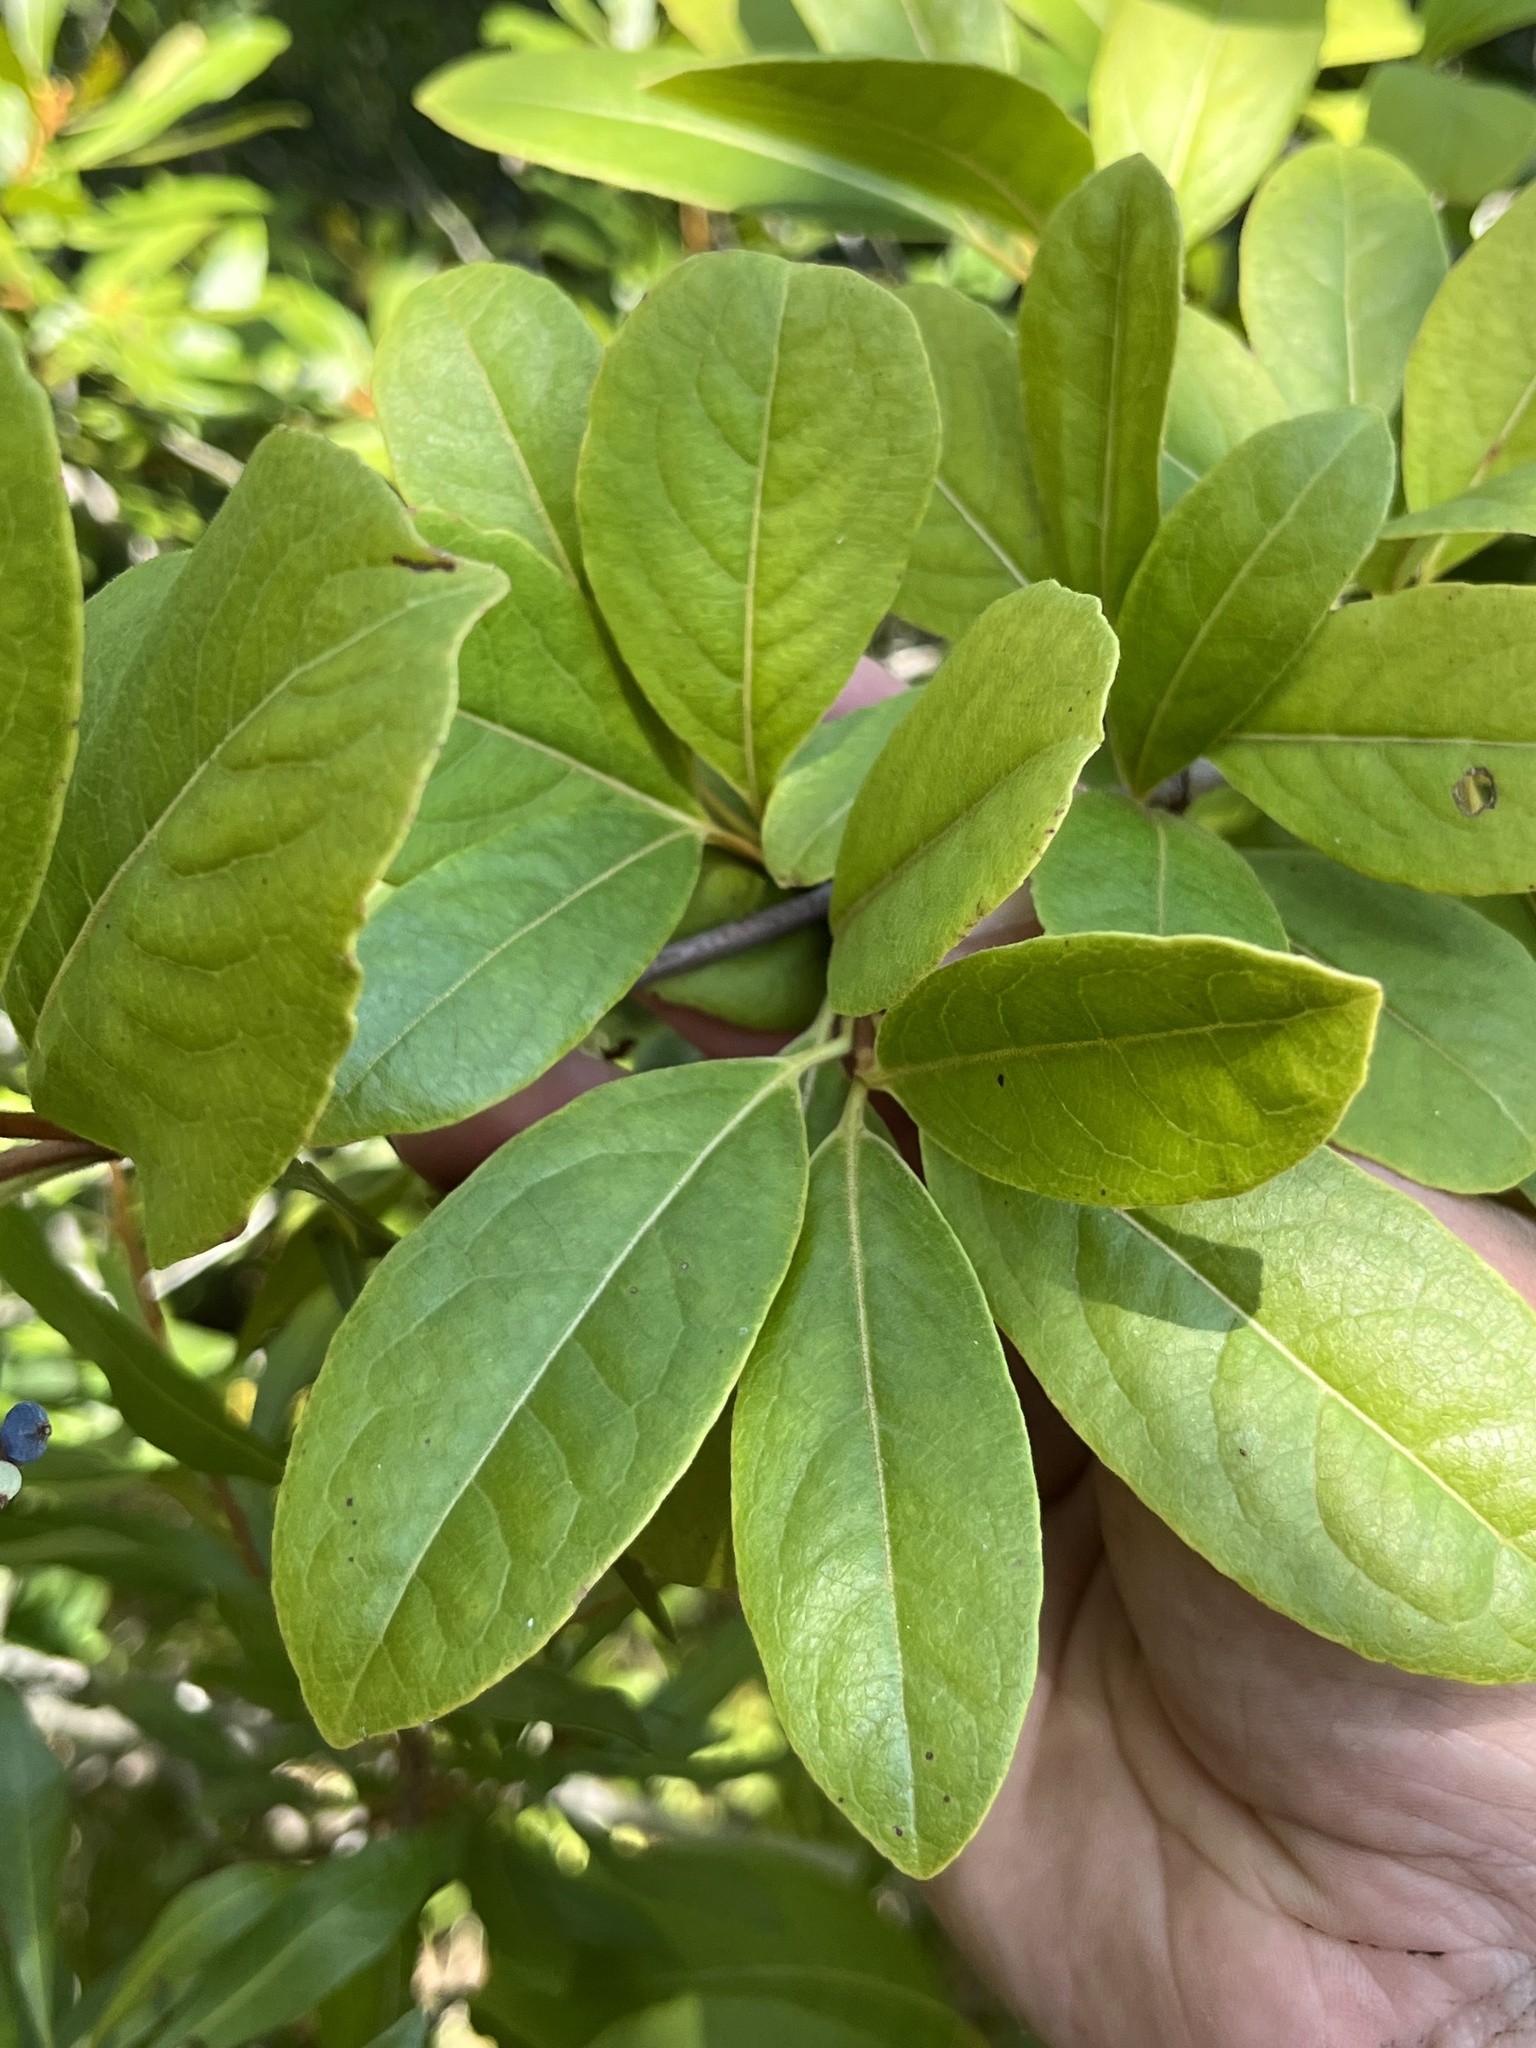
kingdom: Plantae
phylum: Tracheophyta
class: Magnoliopsida
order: Dipsacales
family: Viburnaceae
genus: Viburnum
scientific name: Viburnum nudum
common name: Possum haw
